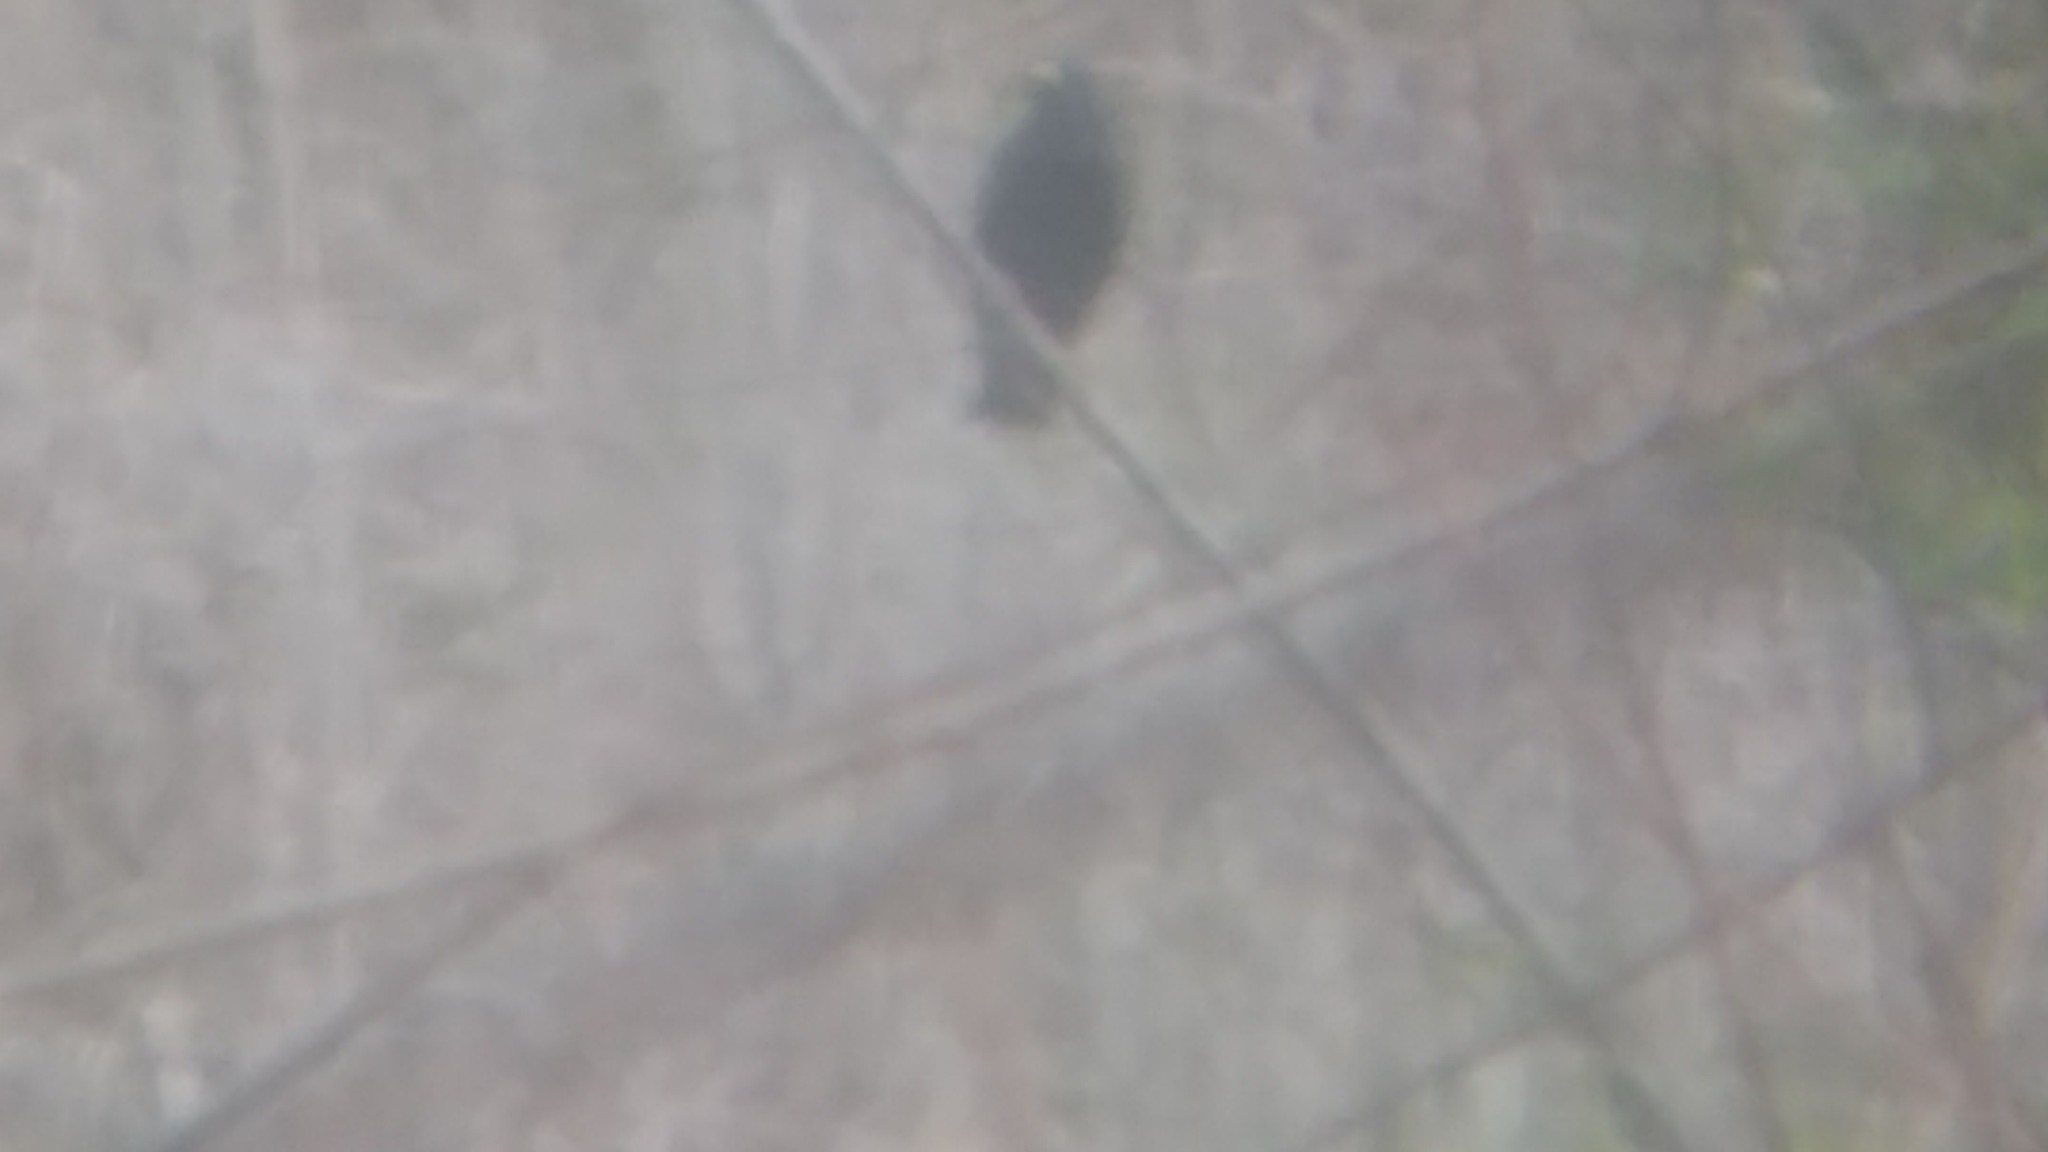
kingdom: Animalia
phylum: Chordata
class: Aves
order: Passeriformes
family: Icteridae
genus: Cacicus
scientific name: Cacicus solitarius
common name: Solitary cacique
